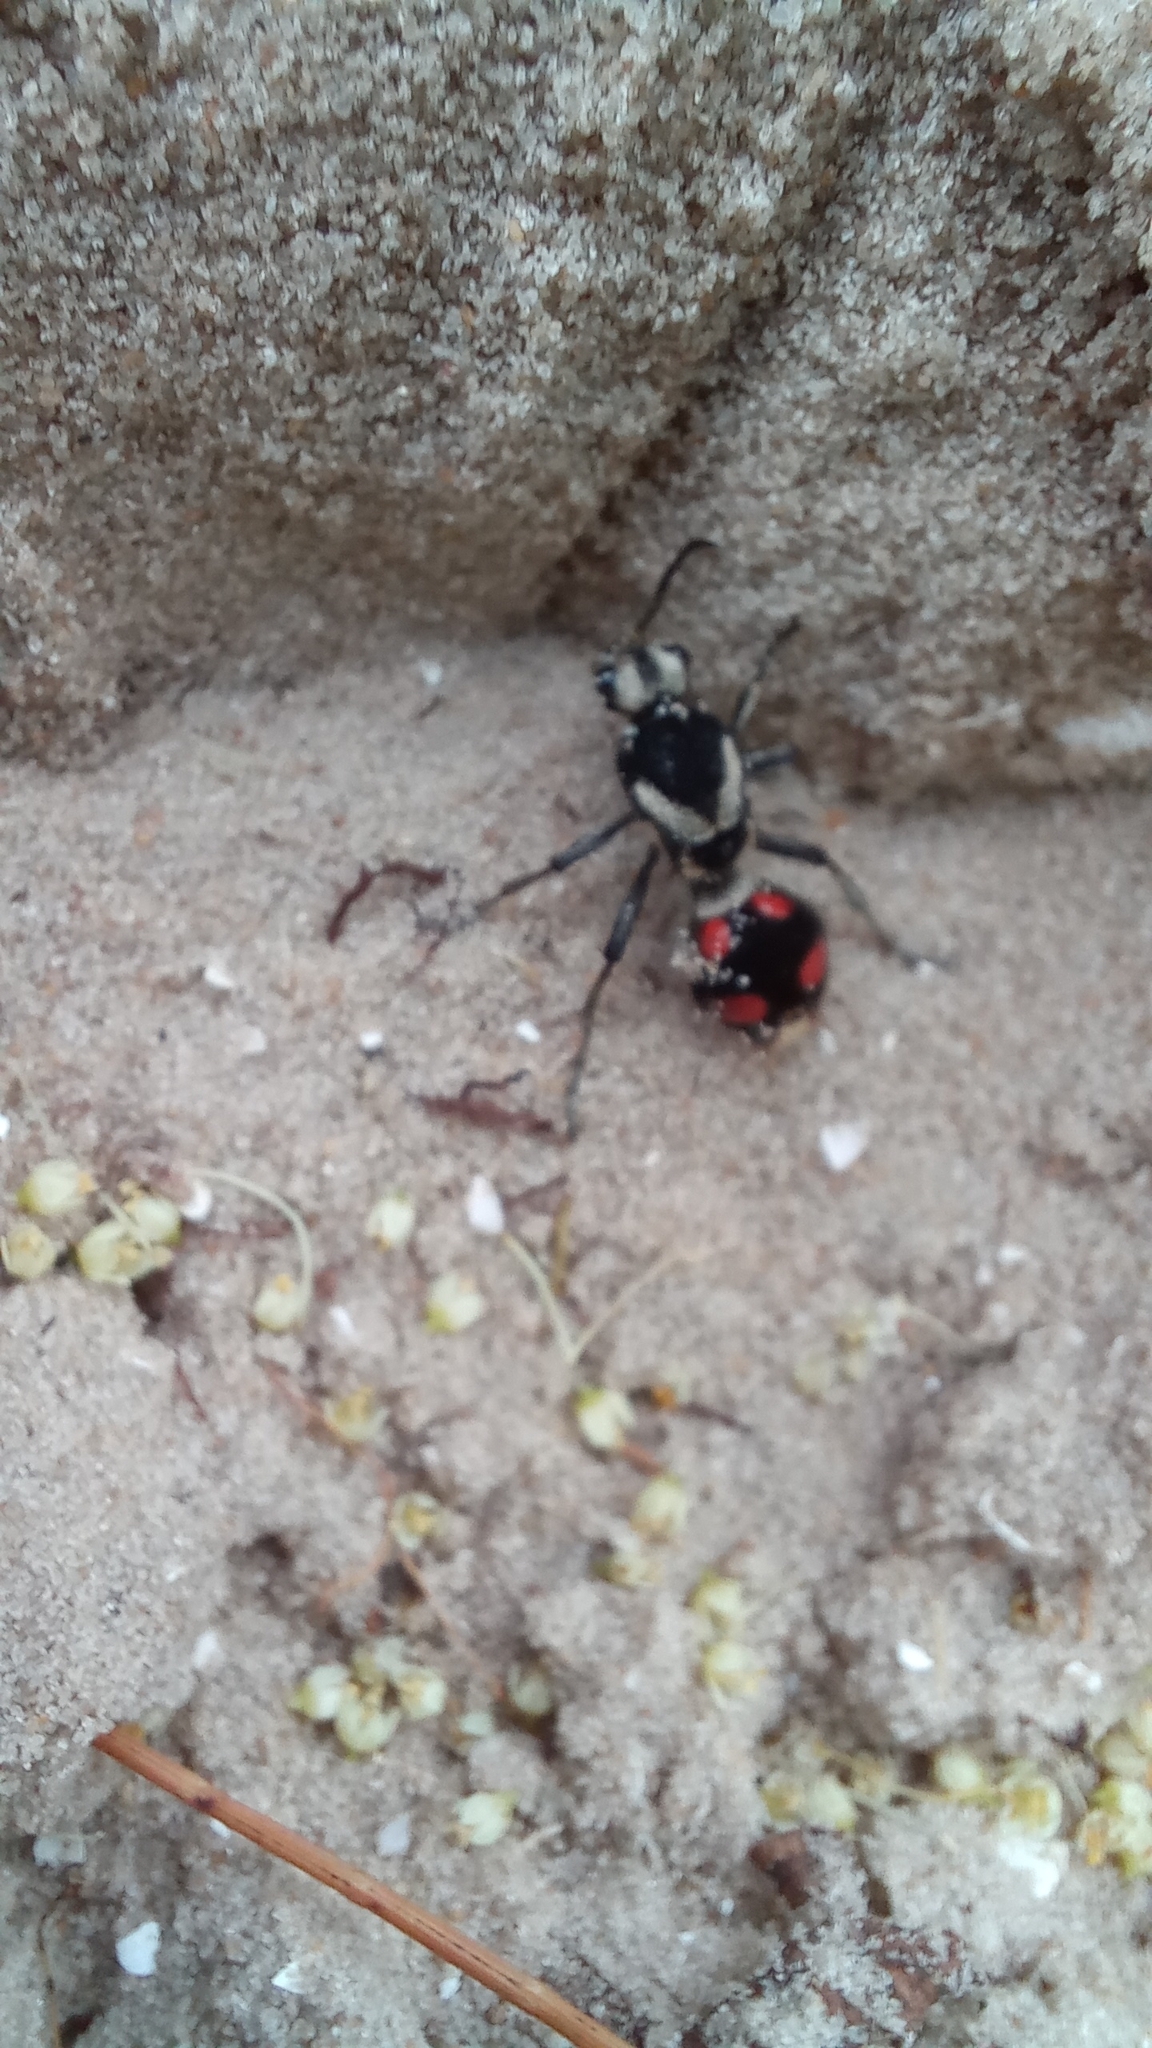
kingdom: Animalia
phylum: Arthropoda
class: Insecta
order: Hymenoptera
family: Mutillidae
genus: Traumatomutilla
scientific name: Traumatomutilla bivittata
